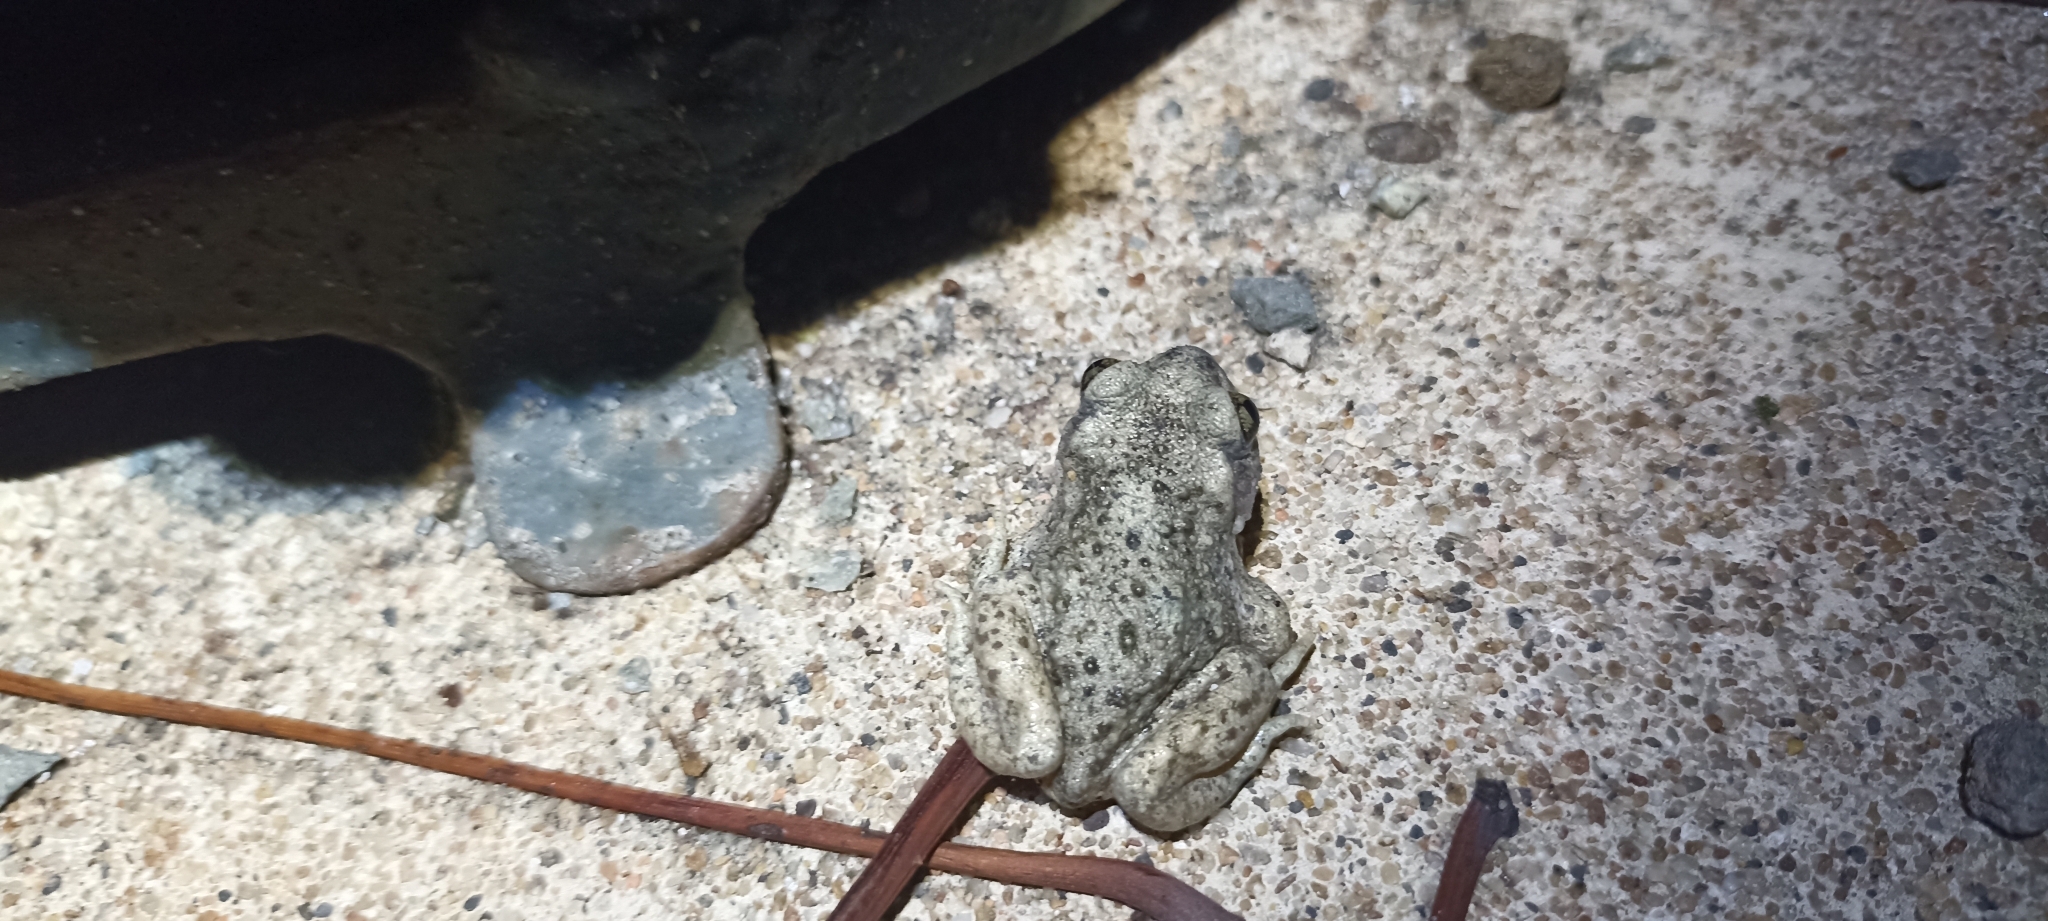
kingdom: Animalia
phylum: Chordata
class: Amphibia
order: Anura
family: Alytidae
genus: Alytes
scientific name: Alytes obstetricans
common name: Midwife toad
